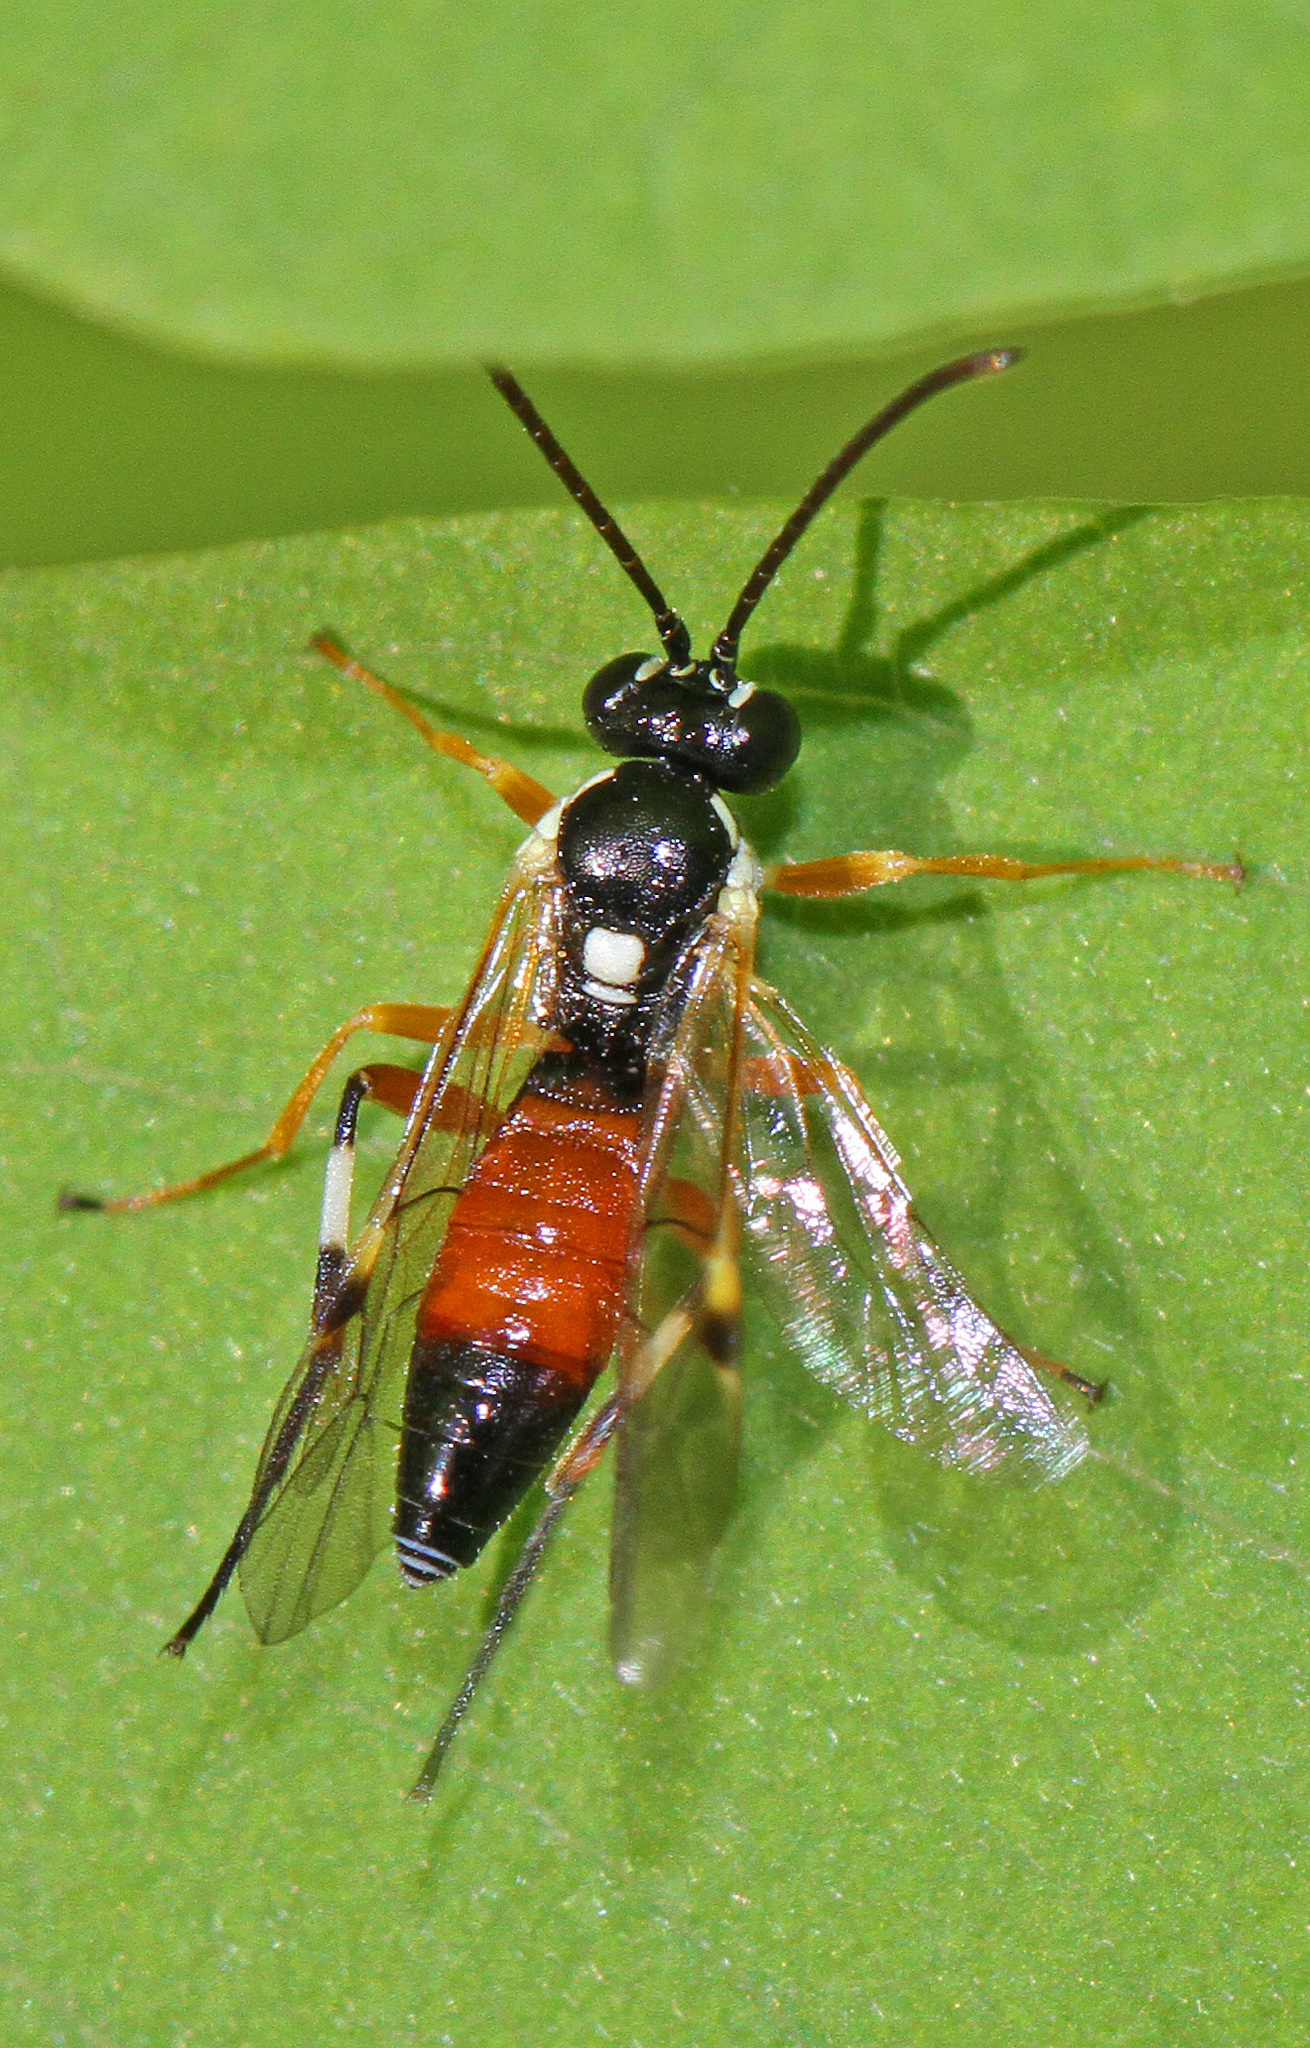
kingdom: Animalia
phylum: Arthropoda
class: Insecta
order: Hymenoptera
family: Ichneumonidae
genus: Diplazon
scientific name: Diplazon laetatorius
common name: Parasitoid wasp
